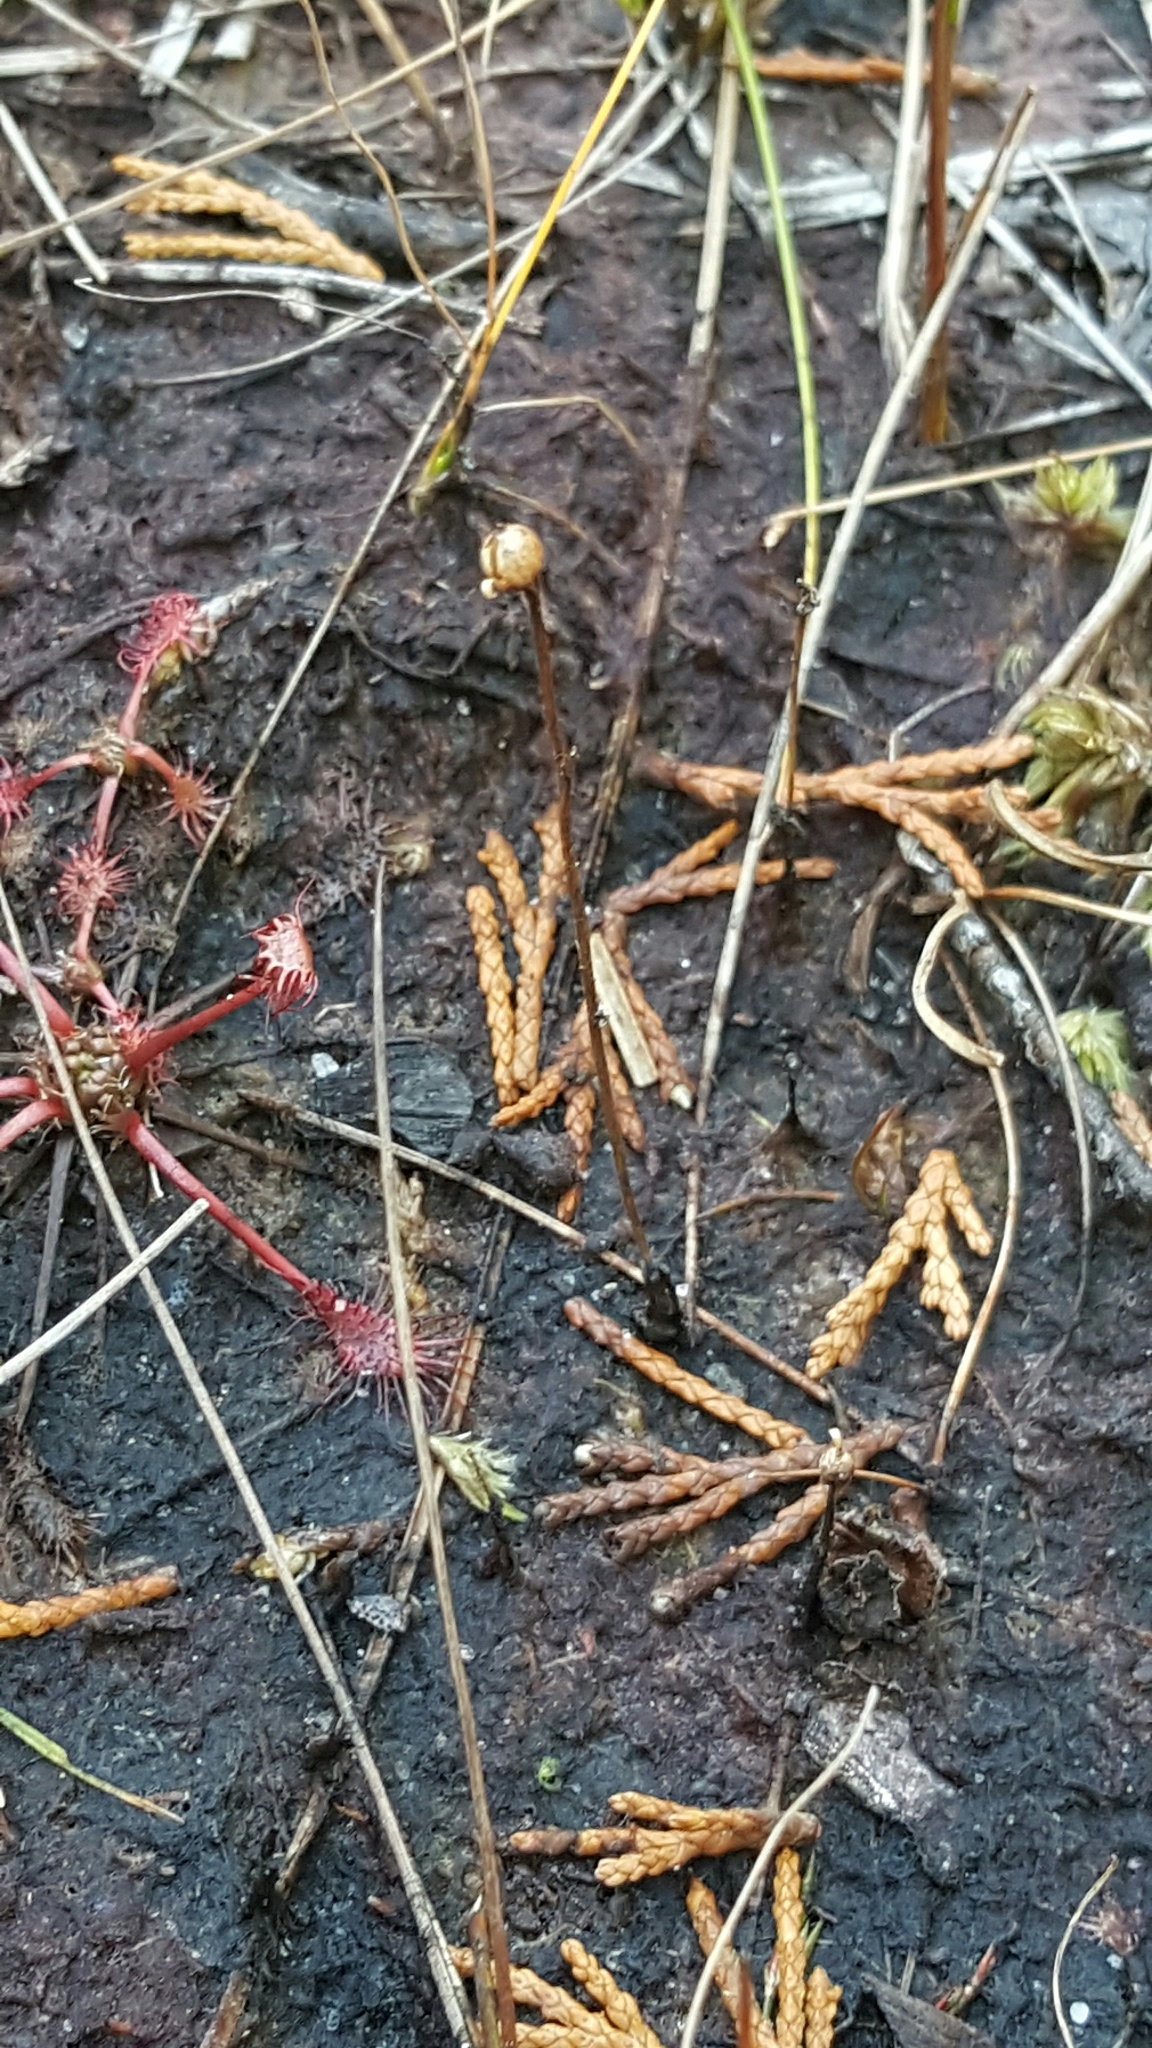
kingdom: Plantae
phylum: Tracheophyta
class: Magnoliopsida
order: Lamiales
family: Lentibulariaceae
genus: Utricularia
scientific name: Utricularia subulata
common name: Tiny bladderwort
